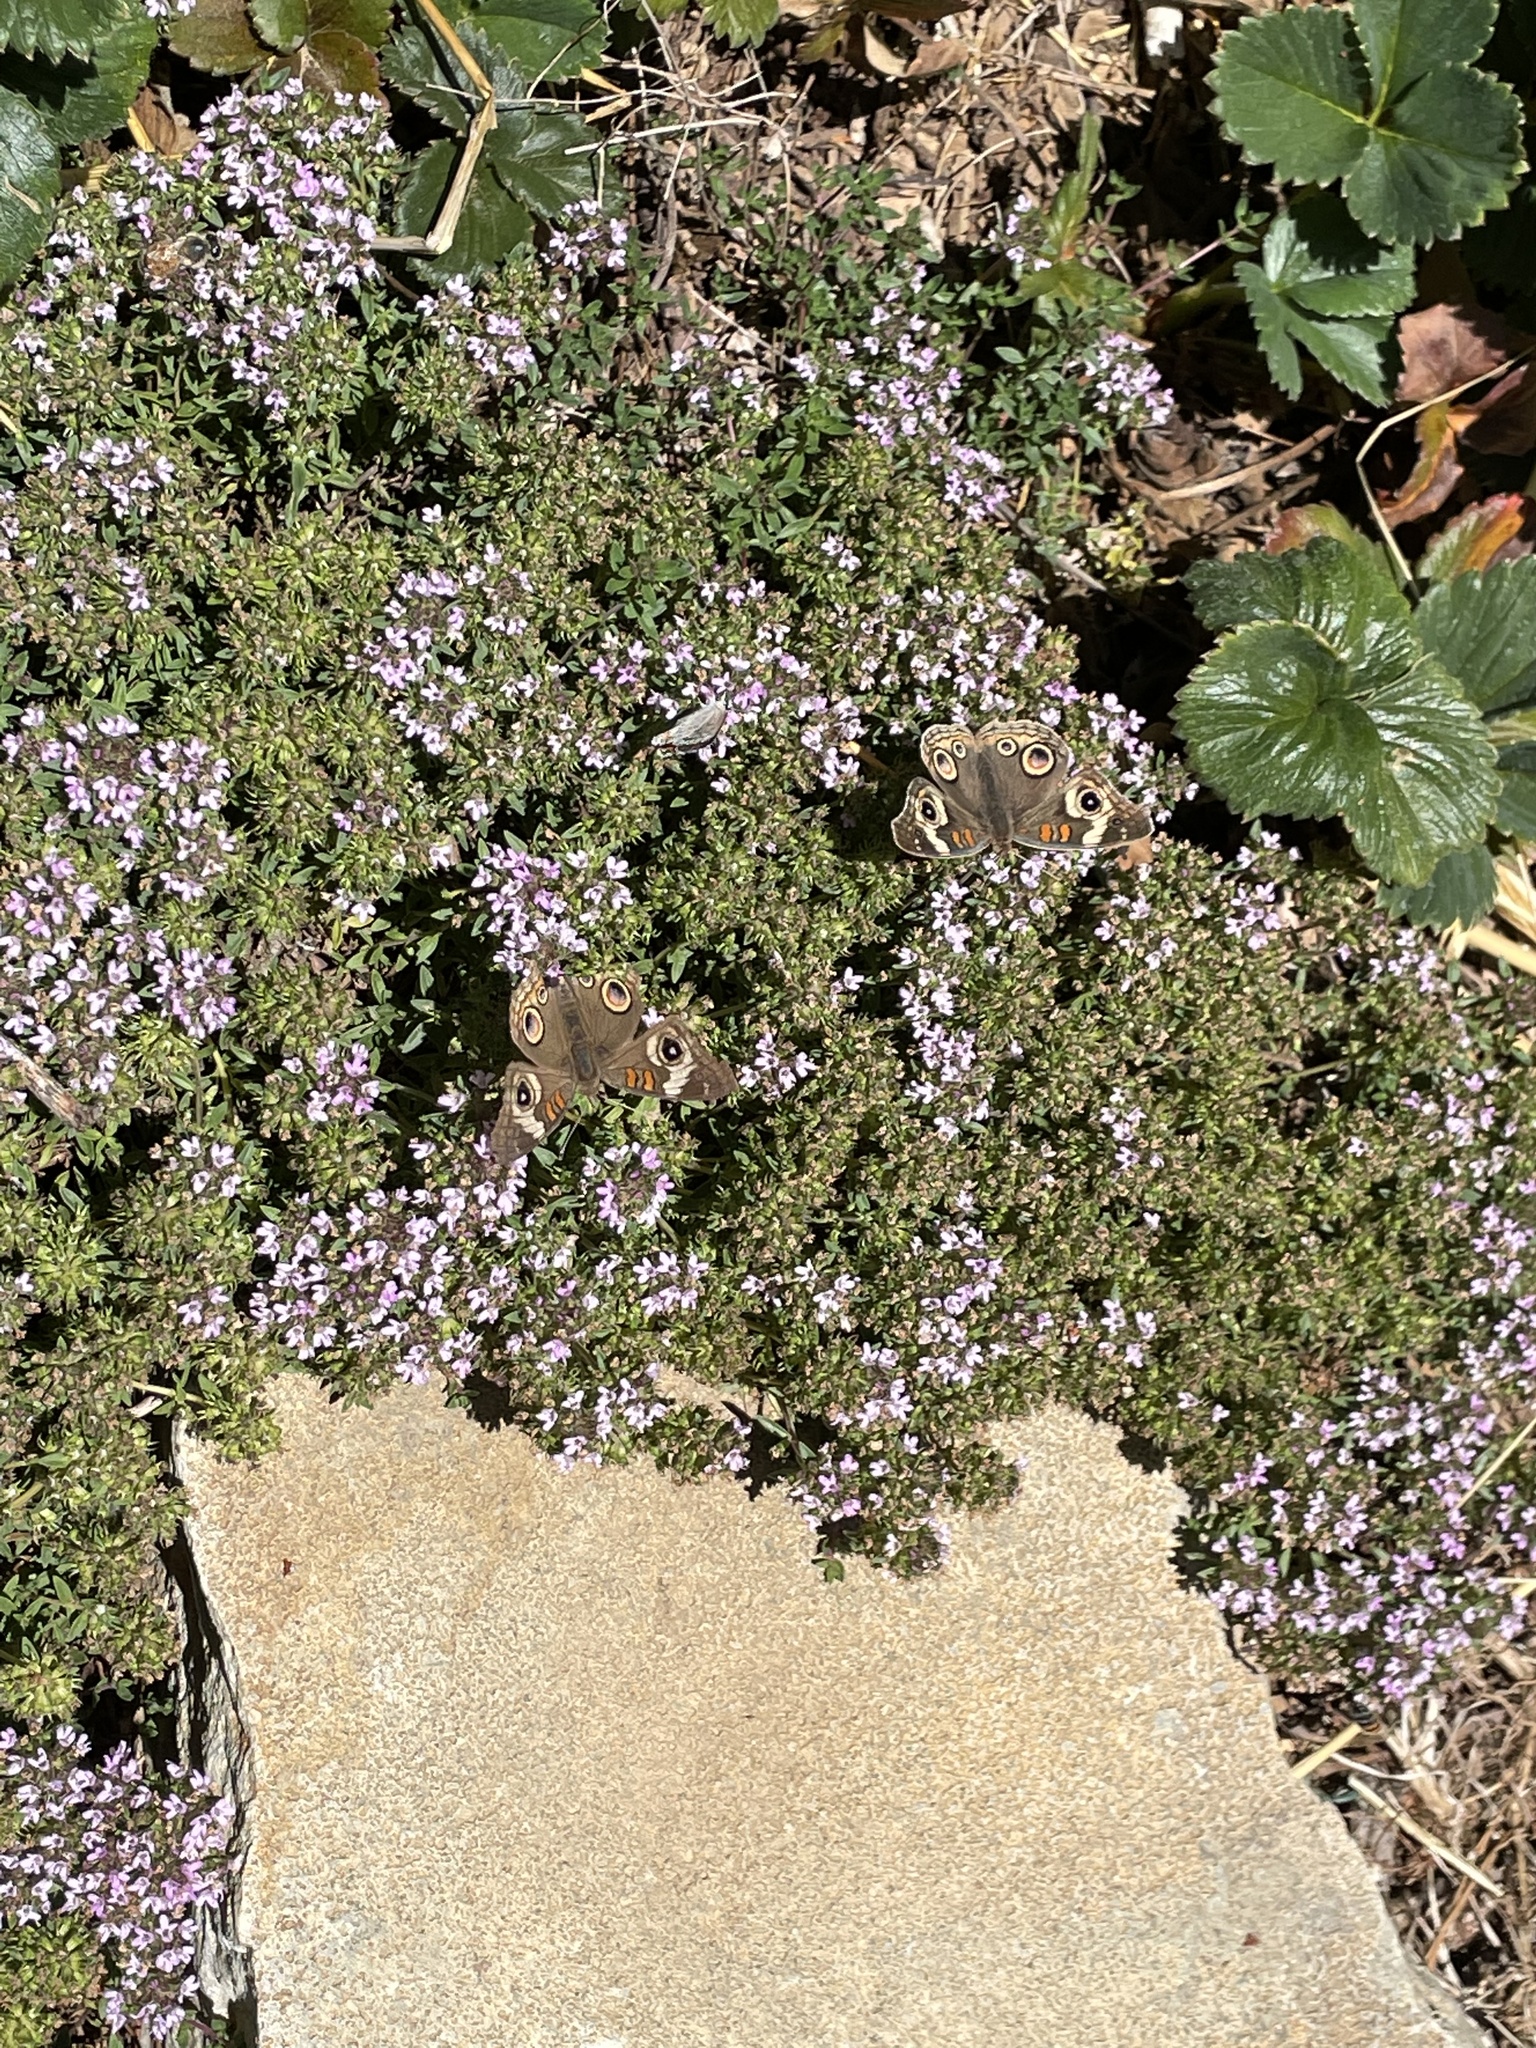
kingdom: Animalia
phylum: Arthropoda
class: Insecta
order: Lepidoptera
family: Nymphalidae
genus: Junonia
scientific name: Junonia grisea
